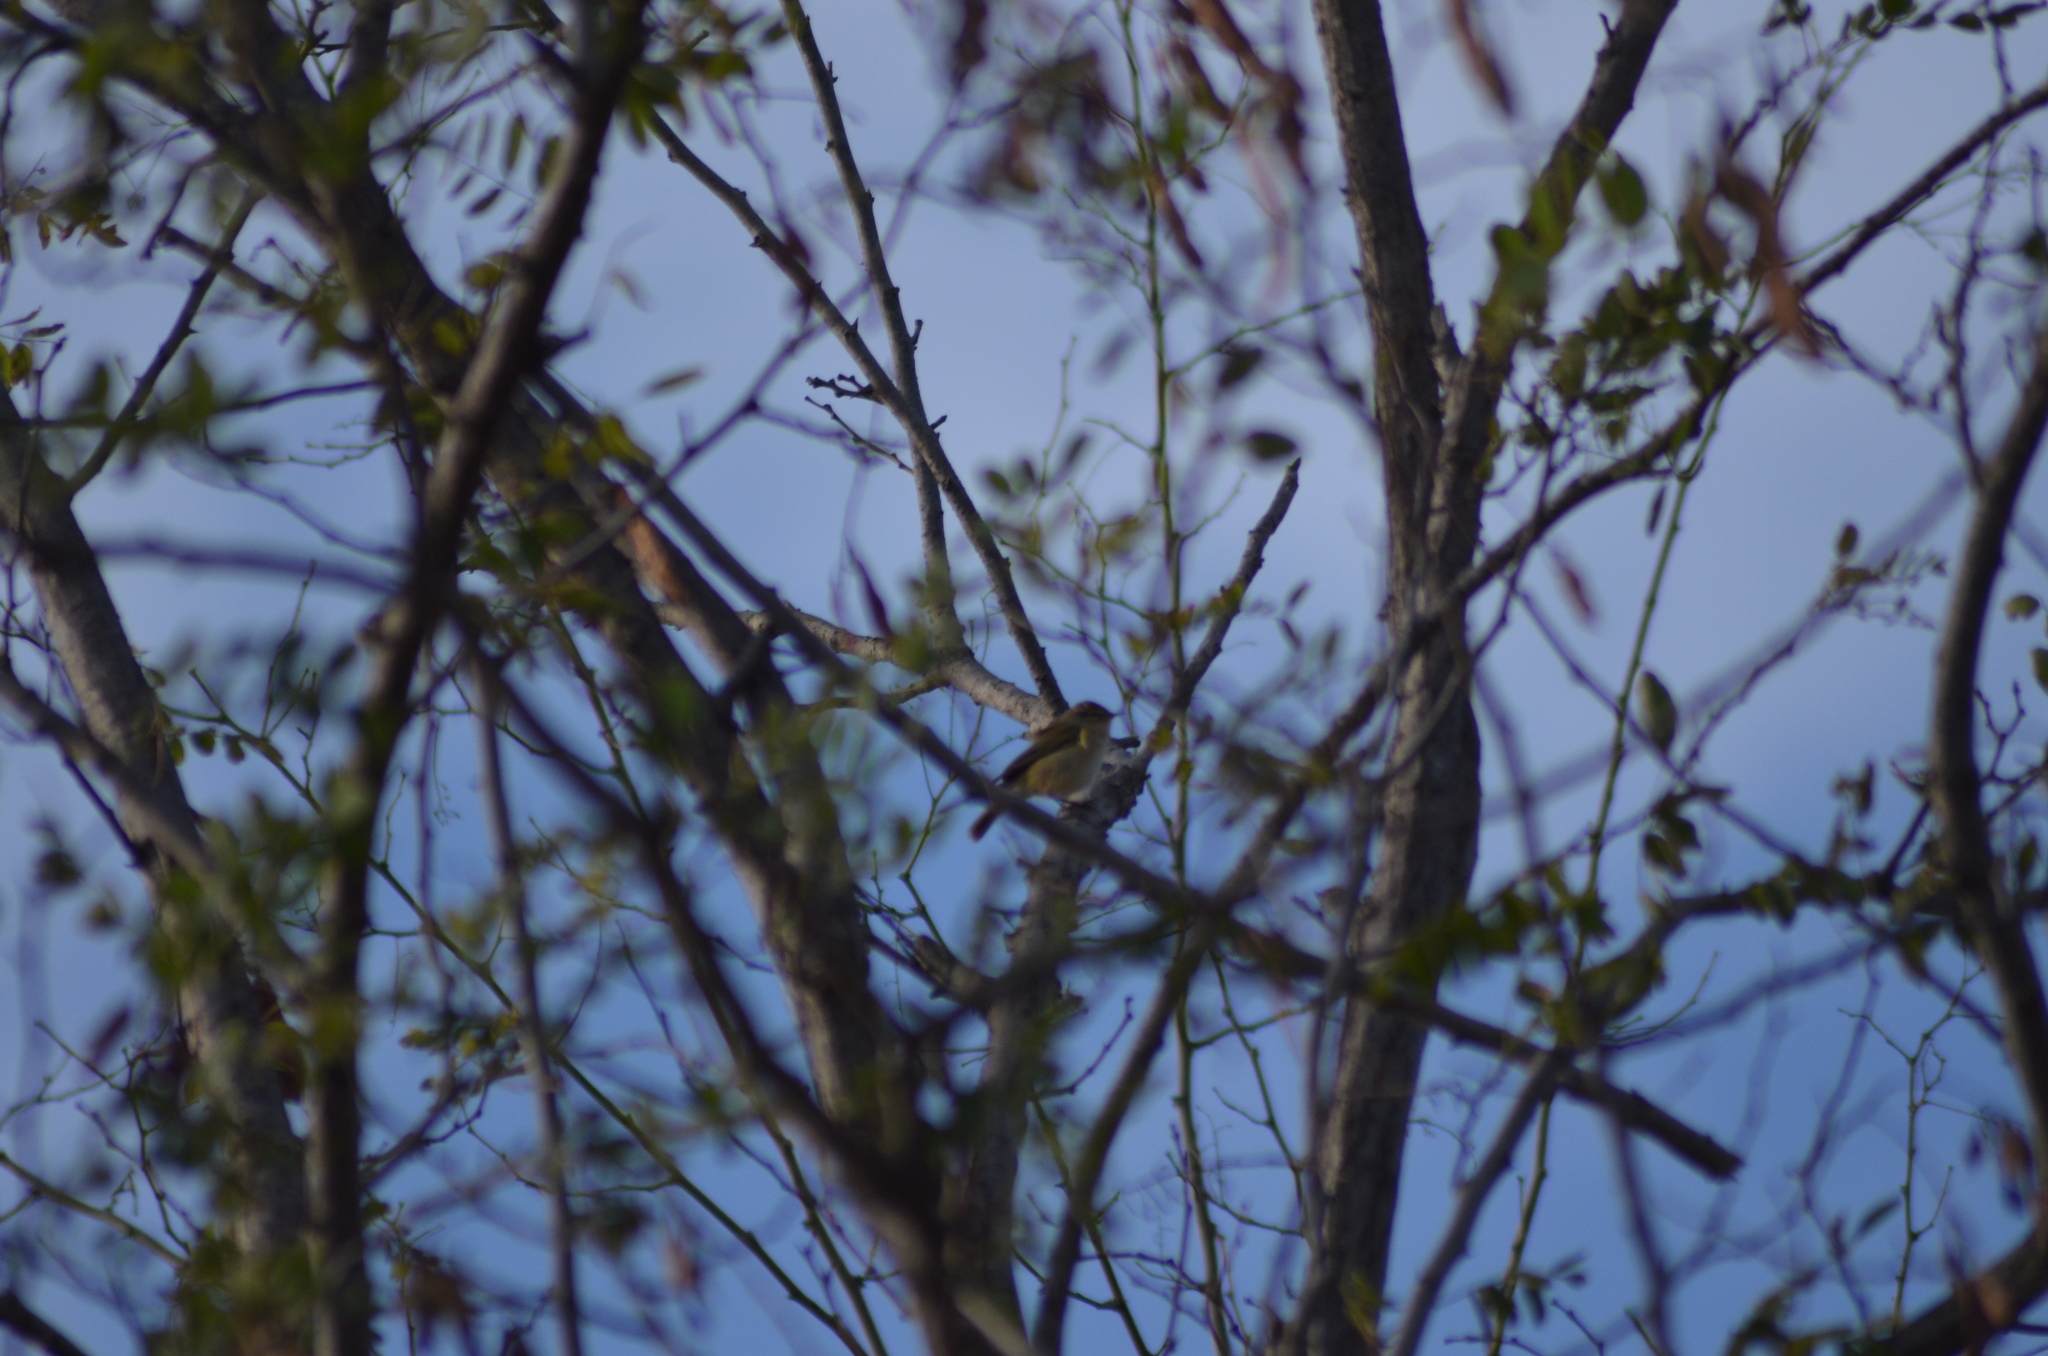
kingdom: Animalia
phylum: Chordata
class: Aves
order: Passeriformes
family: Phylloscopidae
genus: Phylloscopus
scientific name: Phylloscopus collybita
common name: Common chiffchaff
